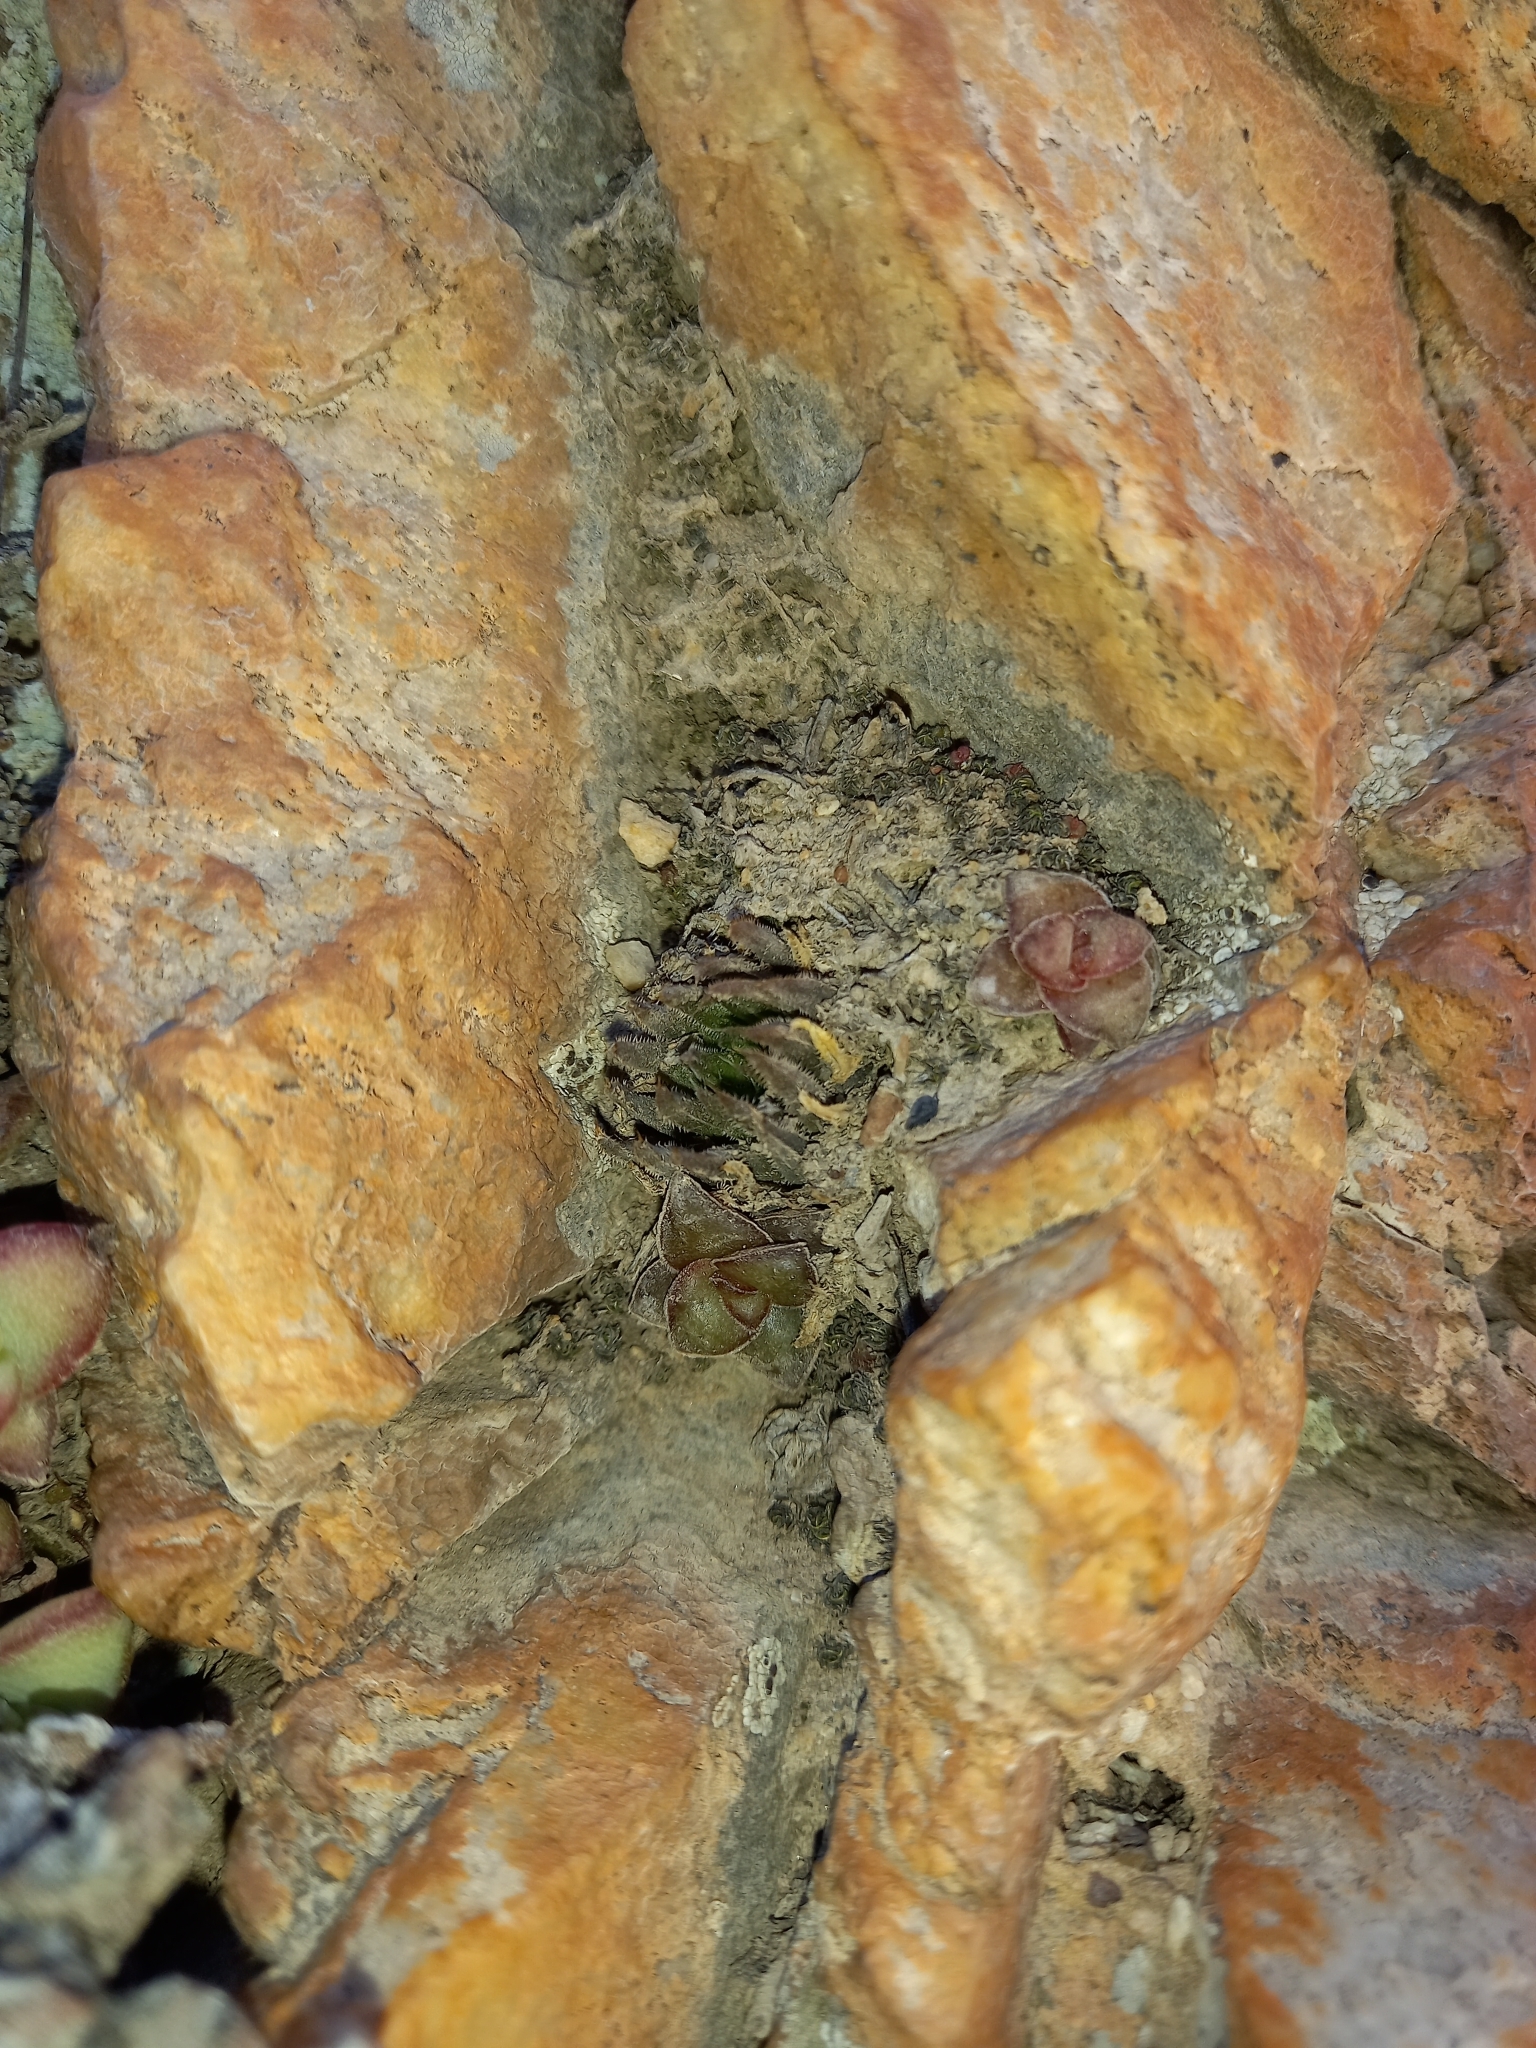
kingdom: Plantae
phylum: Tracheophyta
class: Liliopsida
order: Asparagales
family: Asphodelaceae
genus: Haworthia
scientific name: Haworthia monticola
